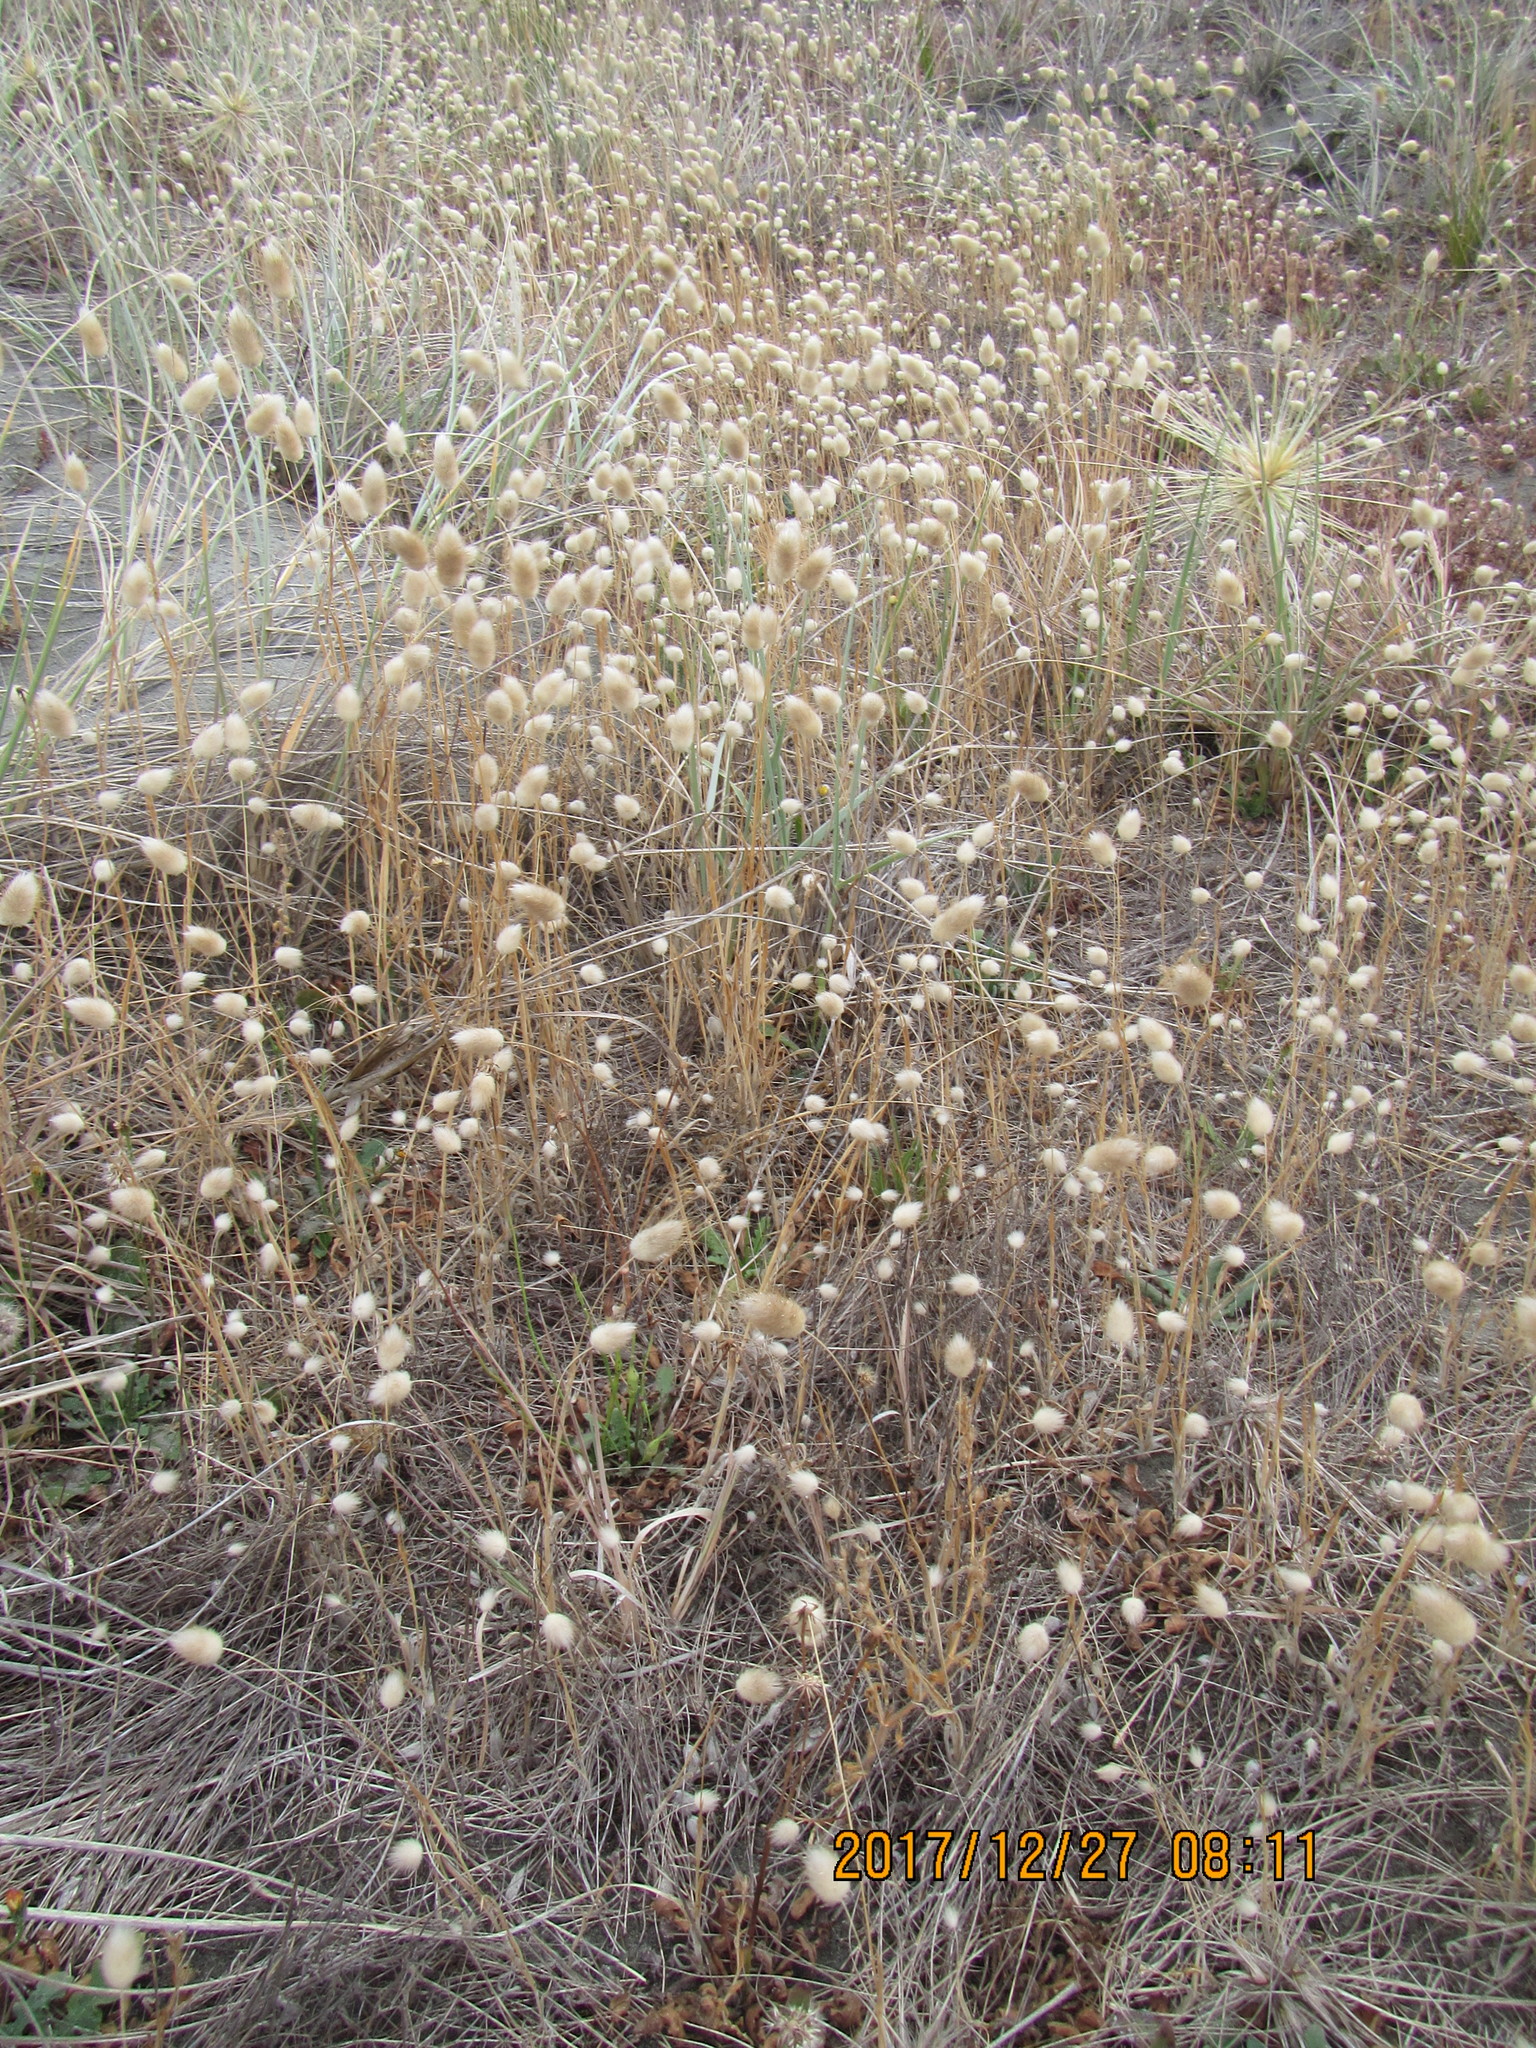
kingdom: Plantae
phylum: Tracheophyta
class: Liliopsida
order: Poales
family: Poaceae
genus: Lagurus
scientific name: Lagurus ovatus
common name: Hare's-tail
